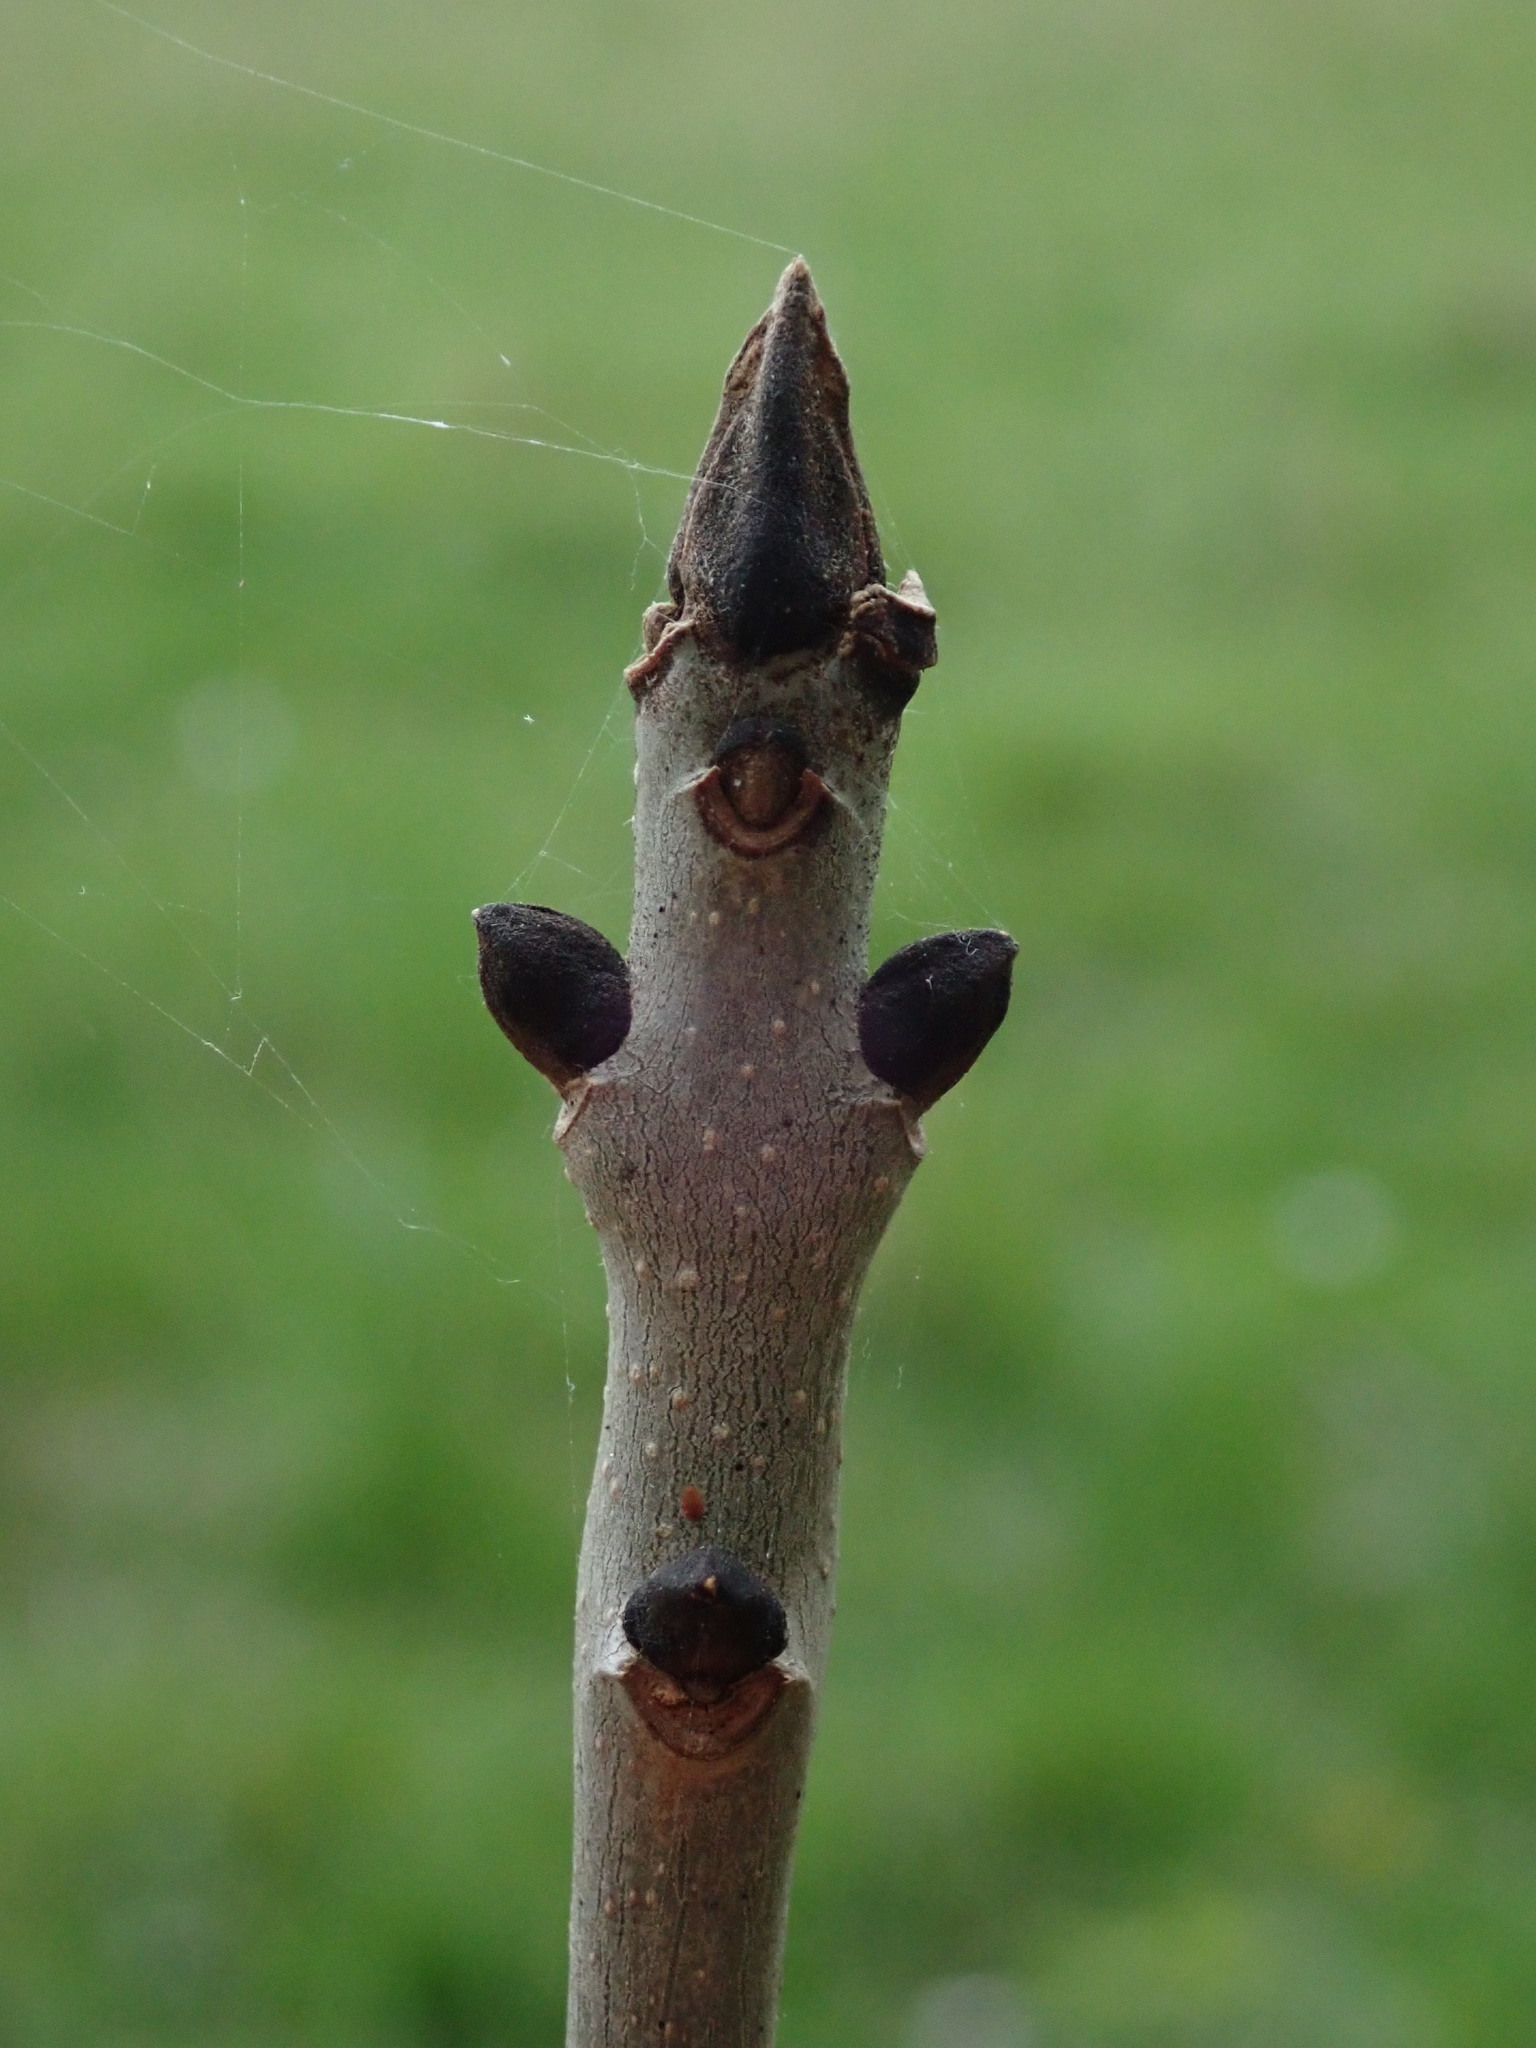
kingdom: Plantae
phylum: Tracheophyta
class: Magnoliopsida
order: Lamiales
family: Oleaceae
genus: Fraxinus
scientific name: Fraxinus excelsior
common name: European ash
